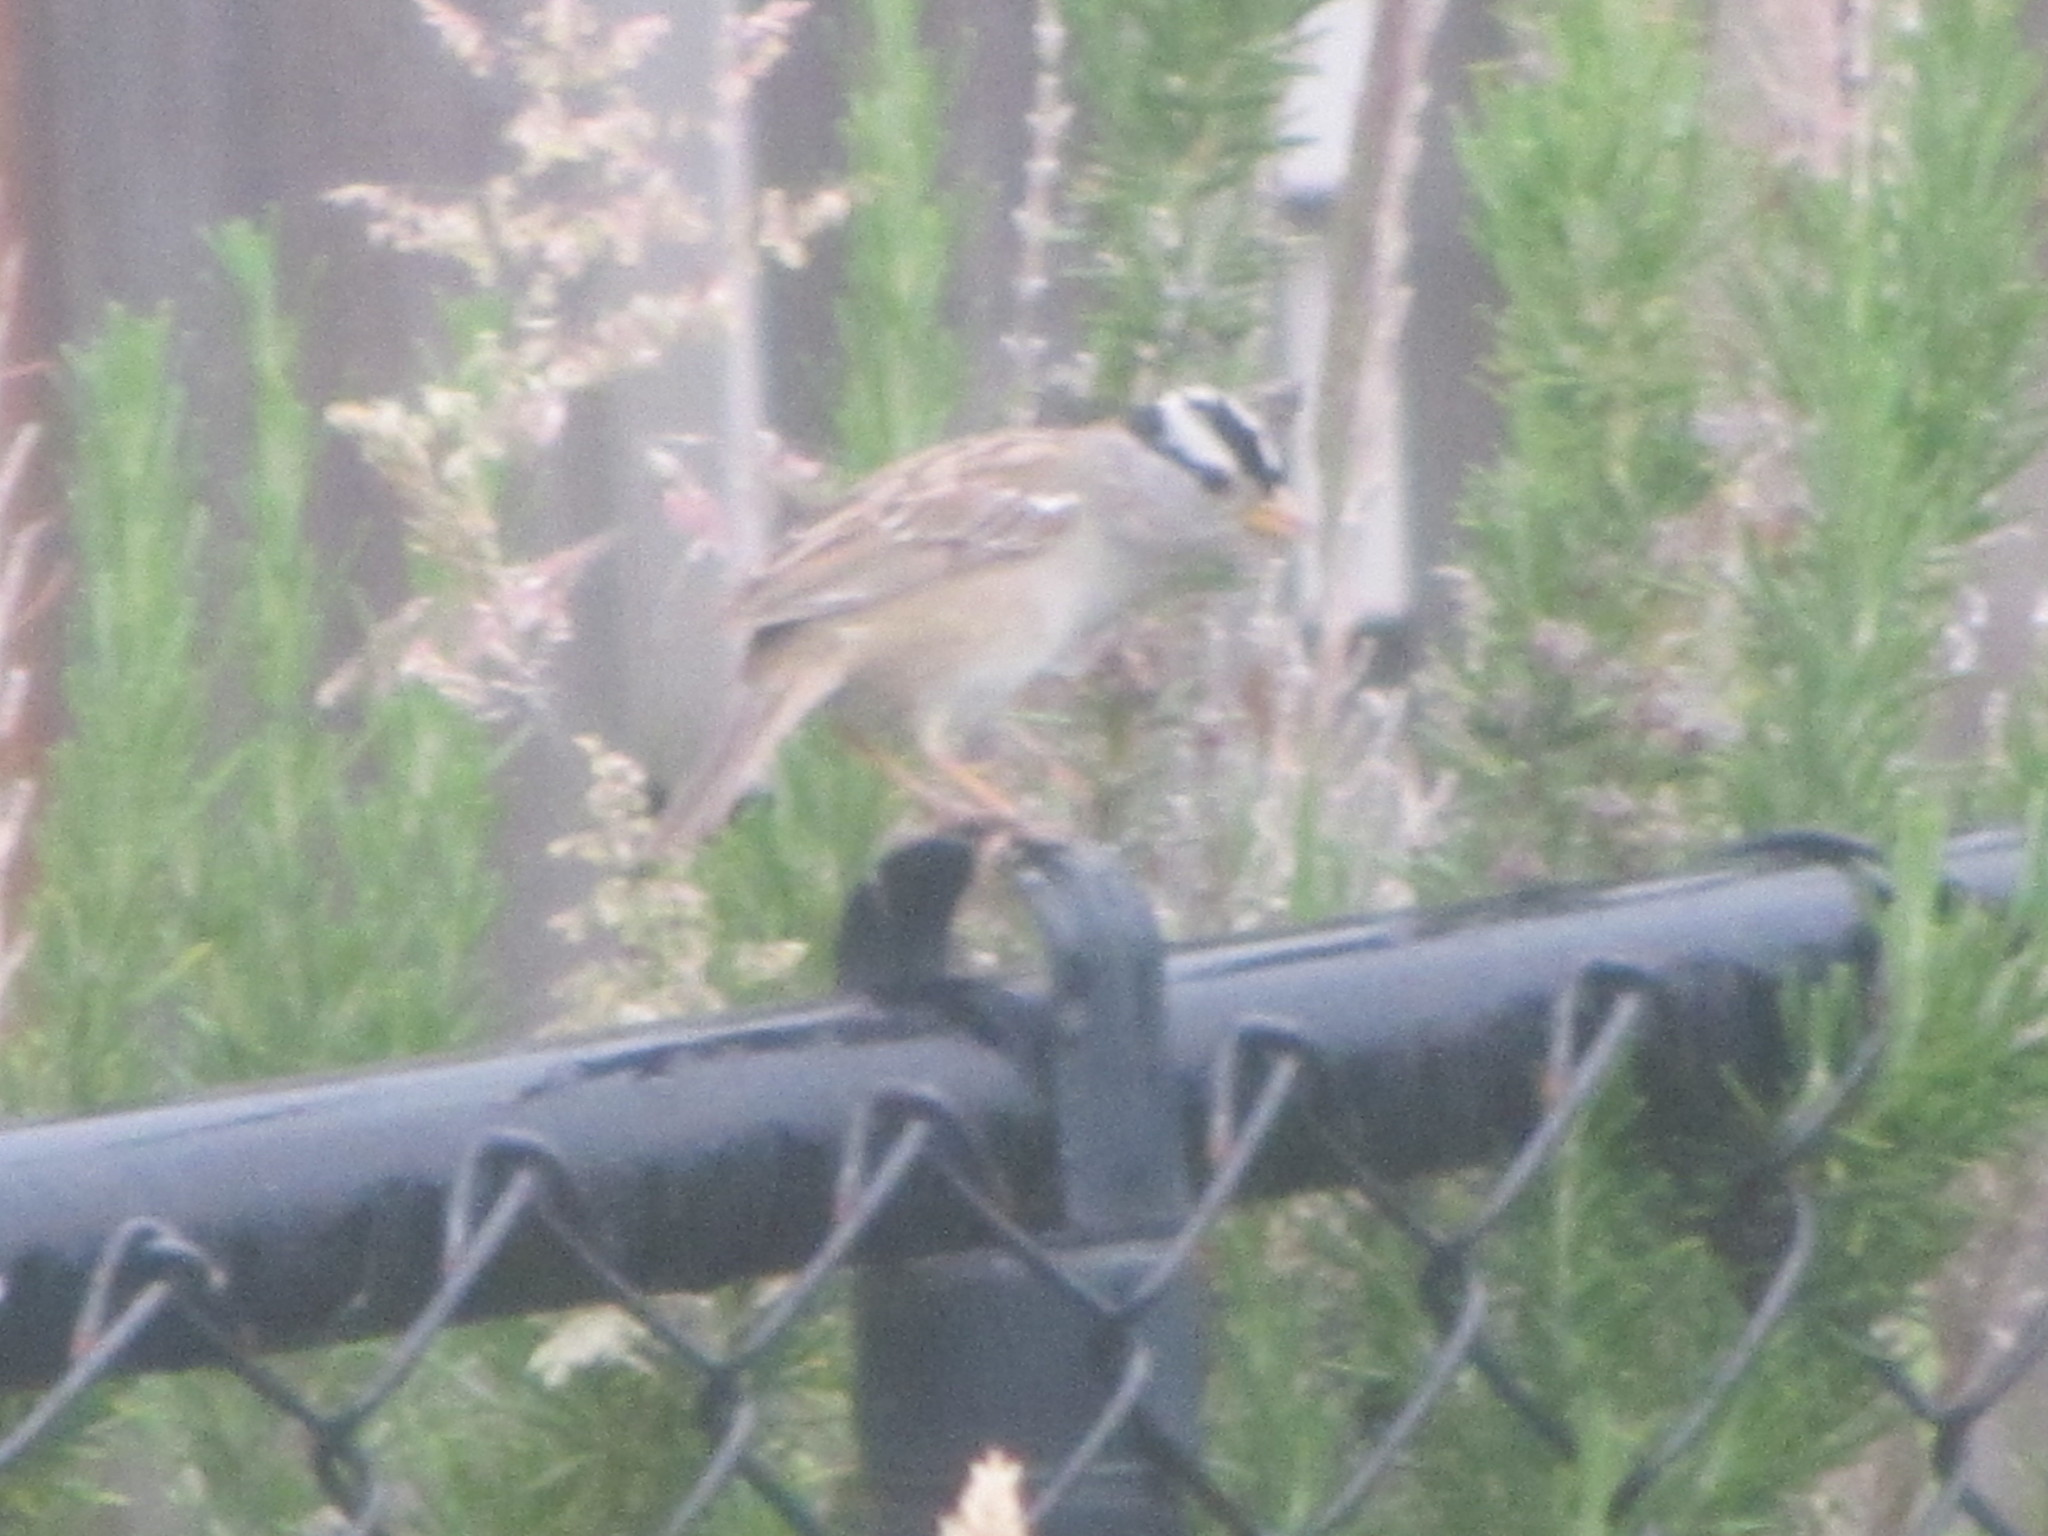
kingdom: Animalia
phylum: Chordata
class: Aves
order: Passeriformes
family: Passerellidae
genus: Zonotrichia
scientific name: Zonotrichia leucophrys
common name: White-crowned sparrow
